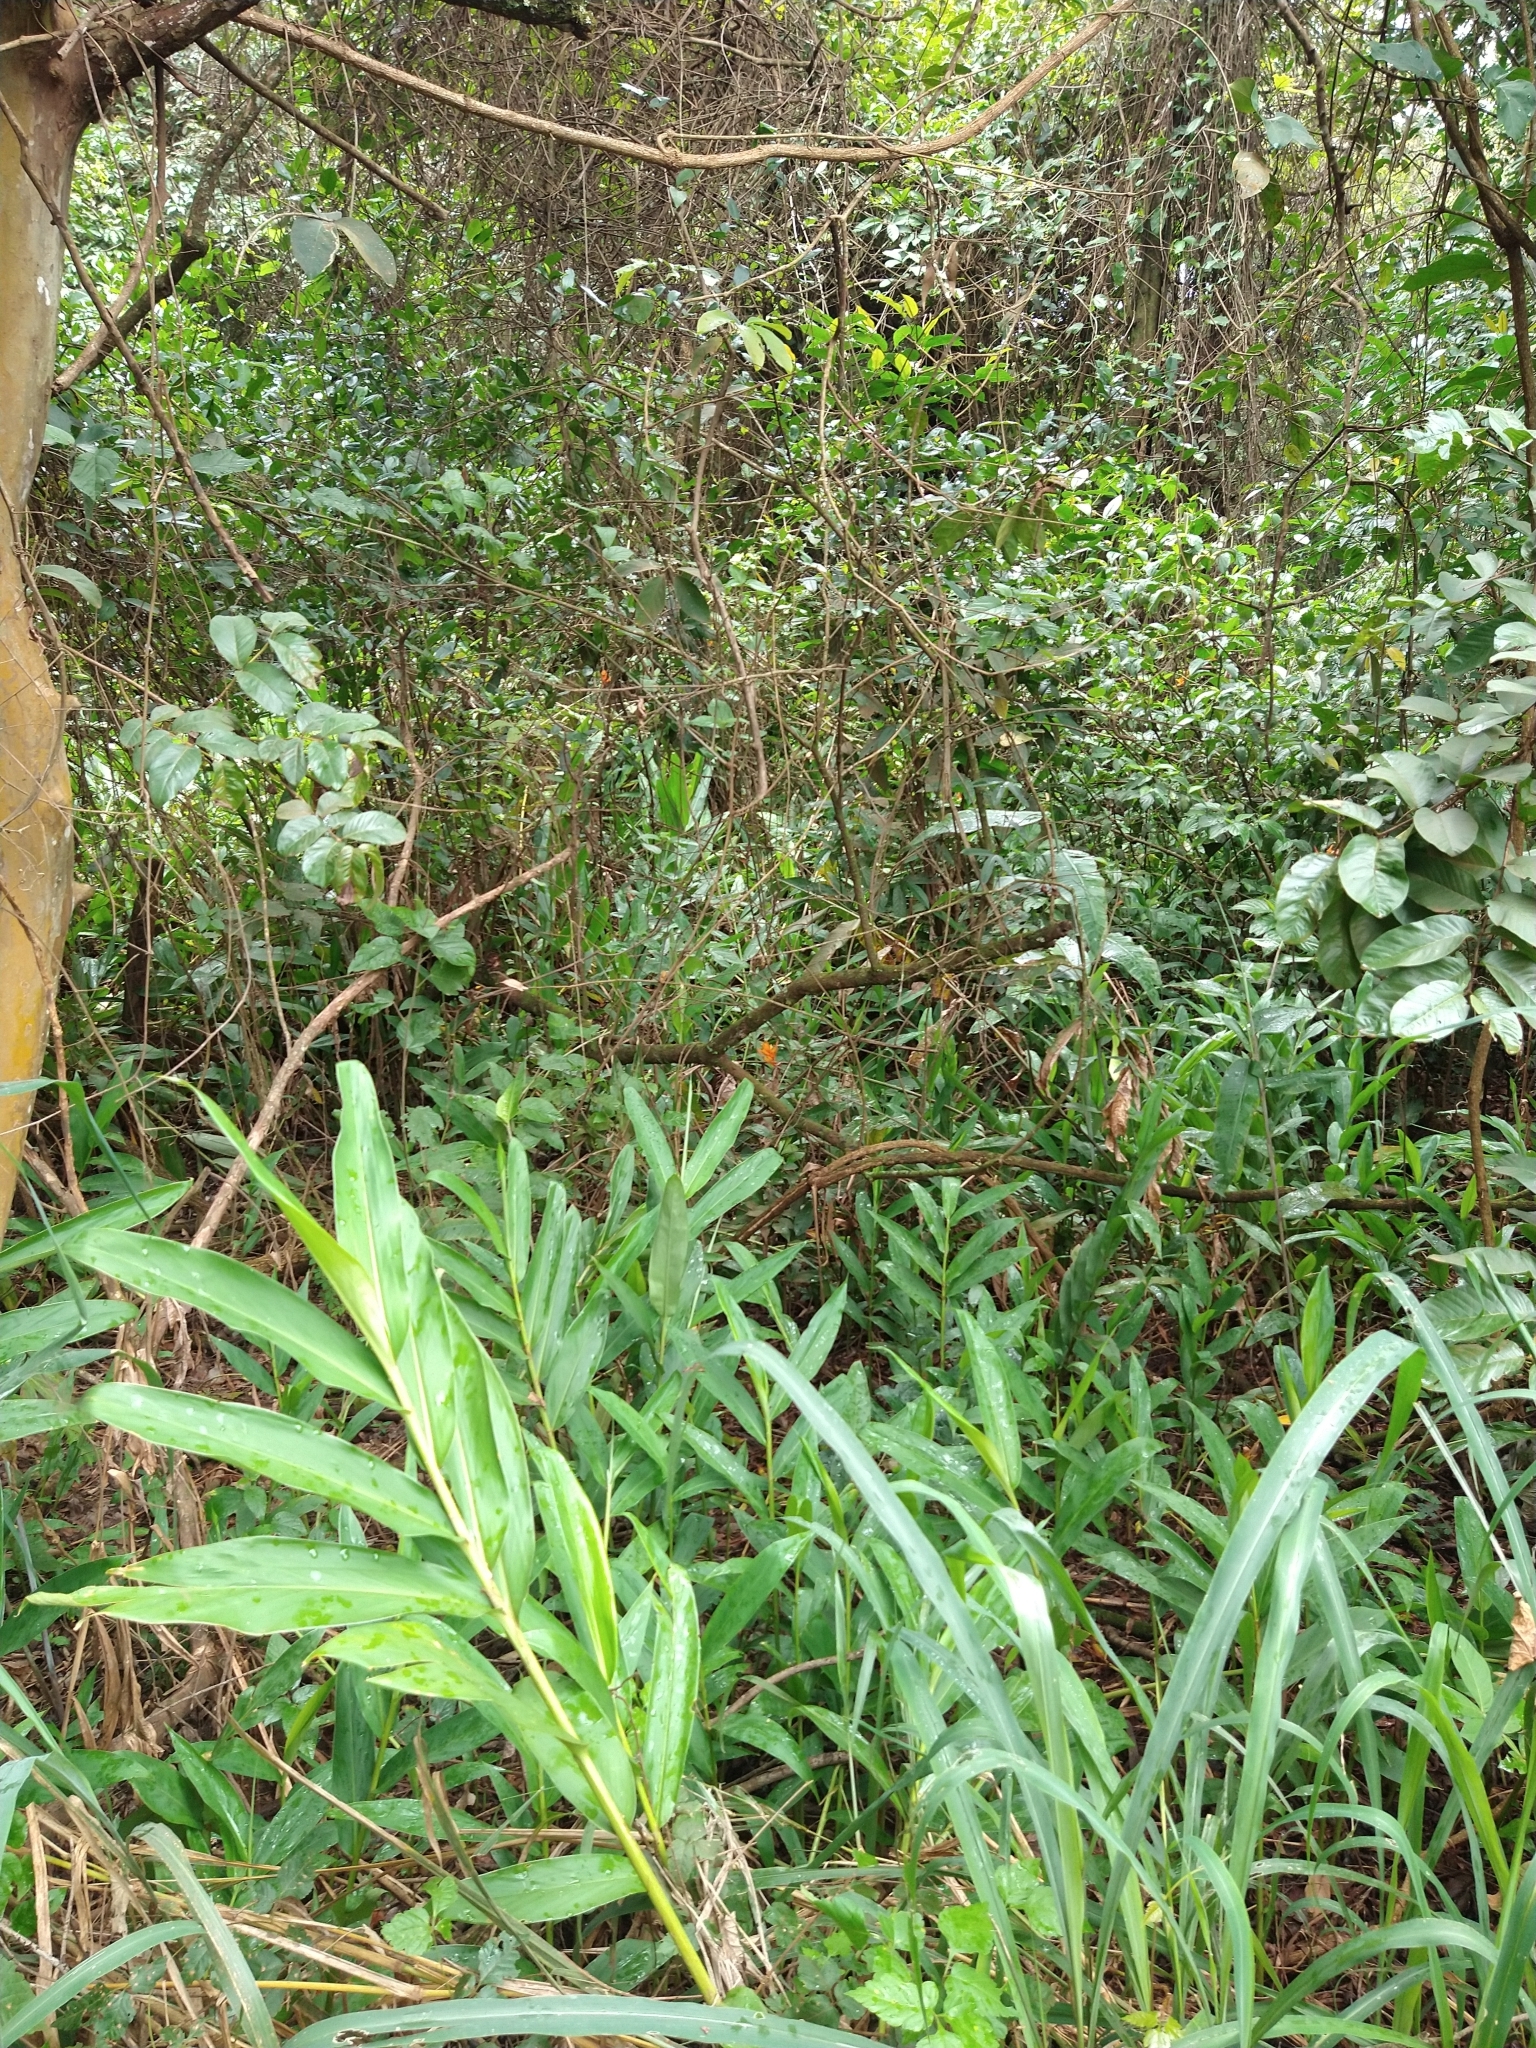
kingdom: Plantae
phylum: Tracheophyta
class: Liliopsida
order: Zingiberales
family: Zingiberaceae
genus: Hedychium
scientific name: Hedychium coronarium
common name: White garland-lily
